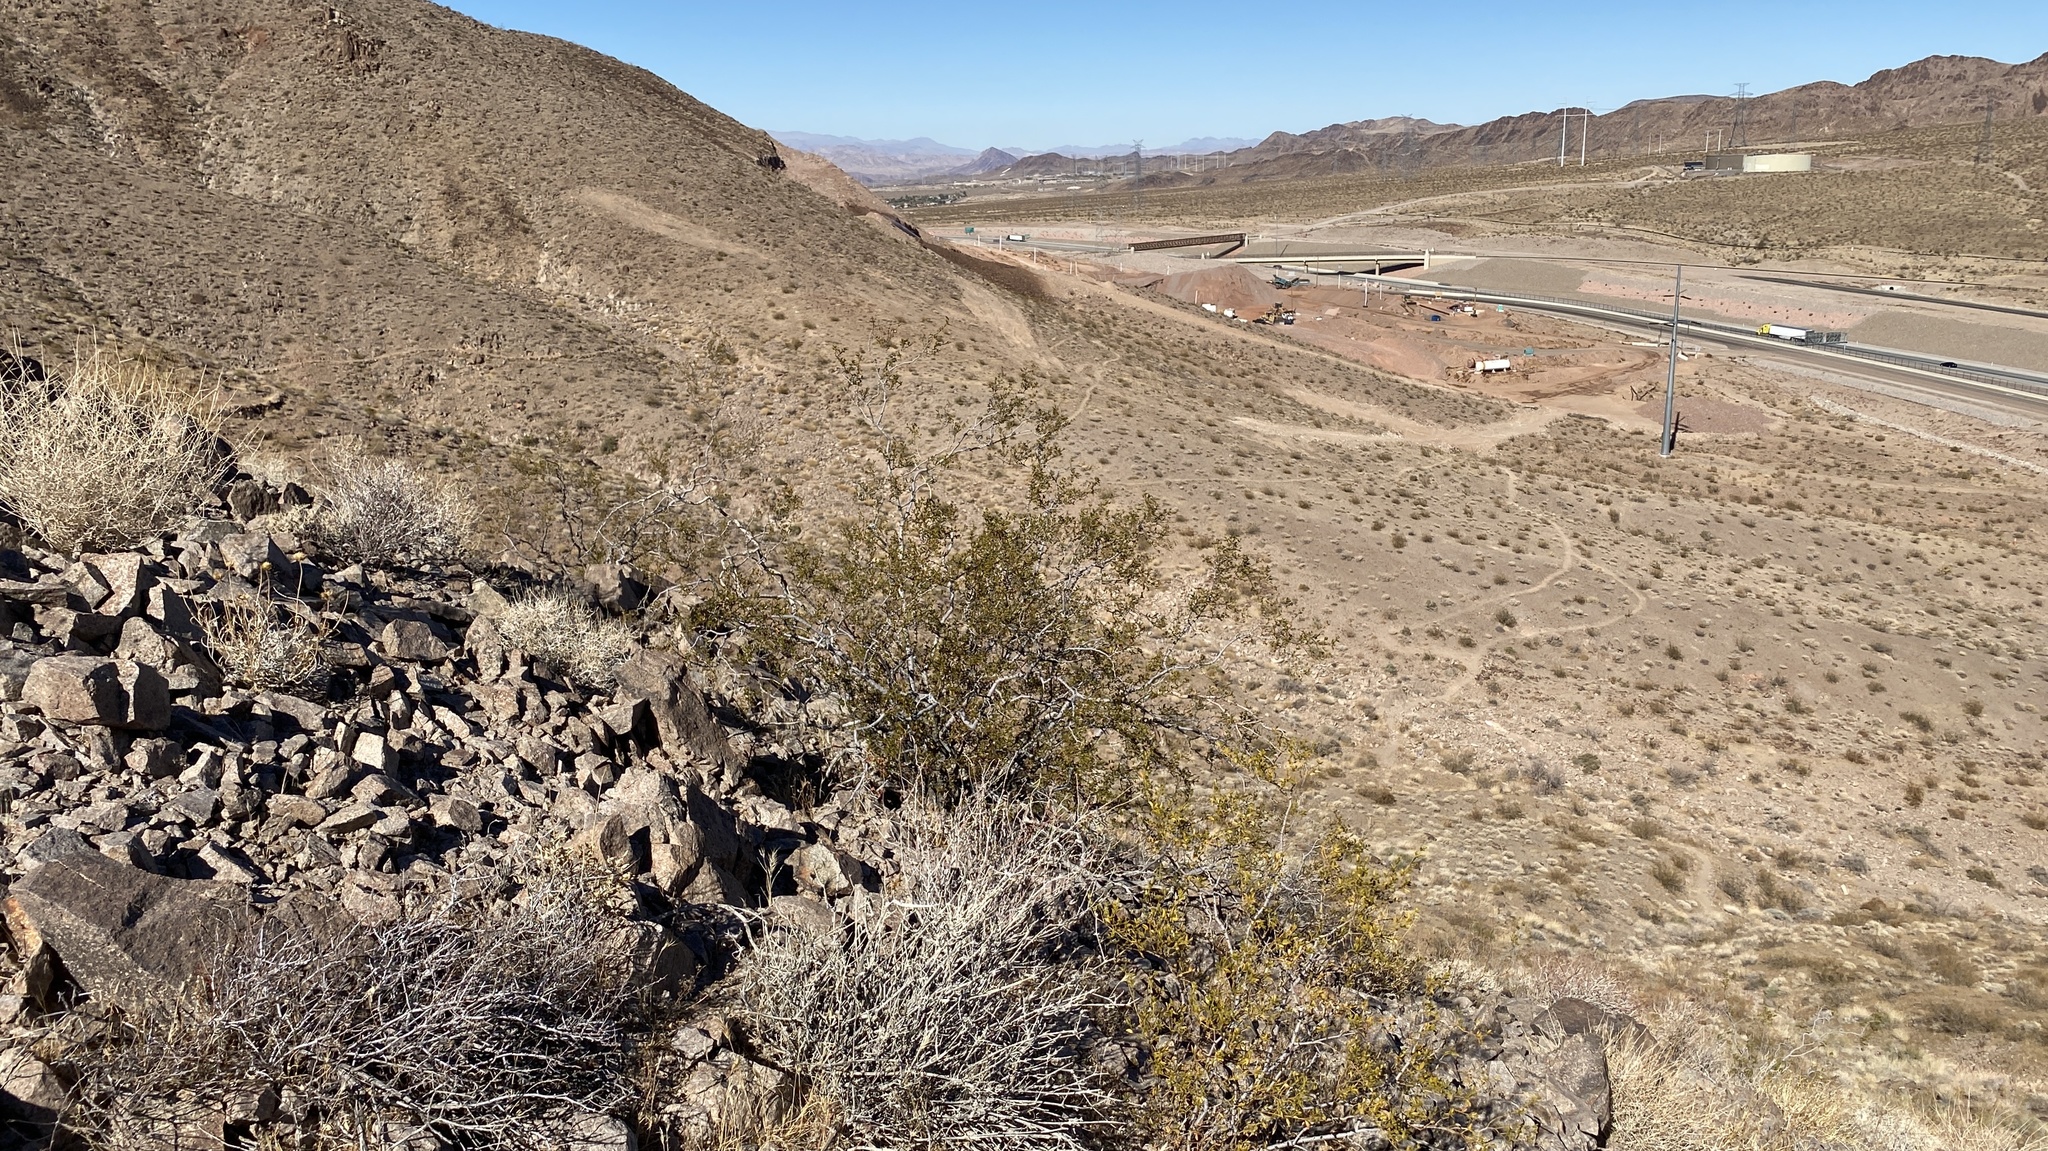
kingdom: Plantae
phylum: Tracheophyta
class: Magnoliopsida
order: Zygophyllales
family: Zygophyllaceae
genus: Larrea
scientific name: Larrea tridentata
